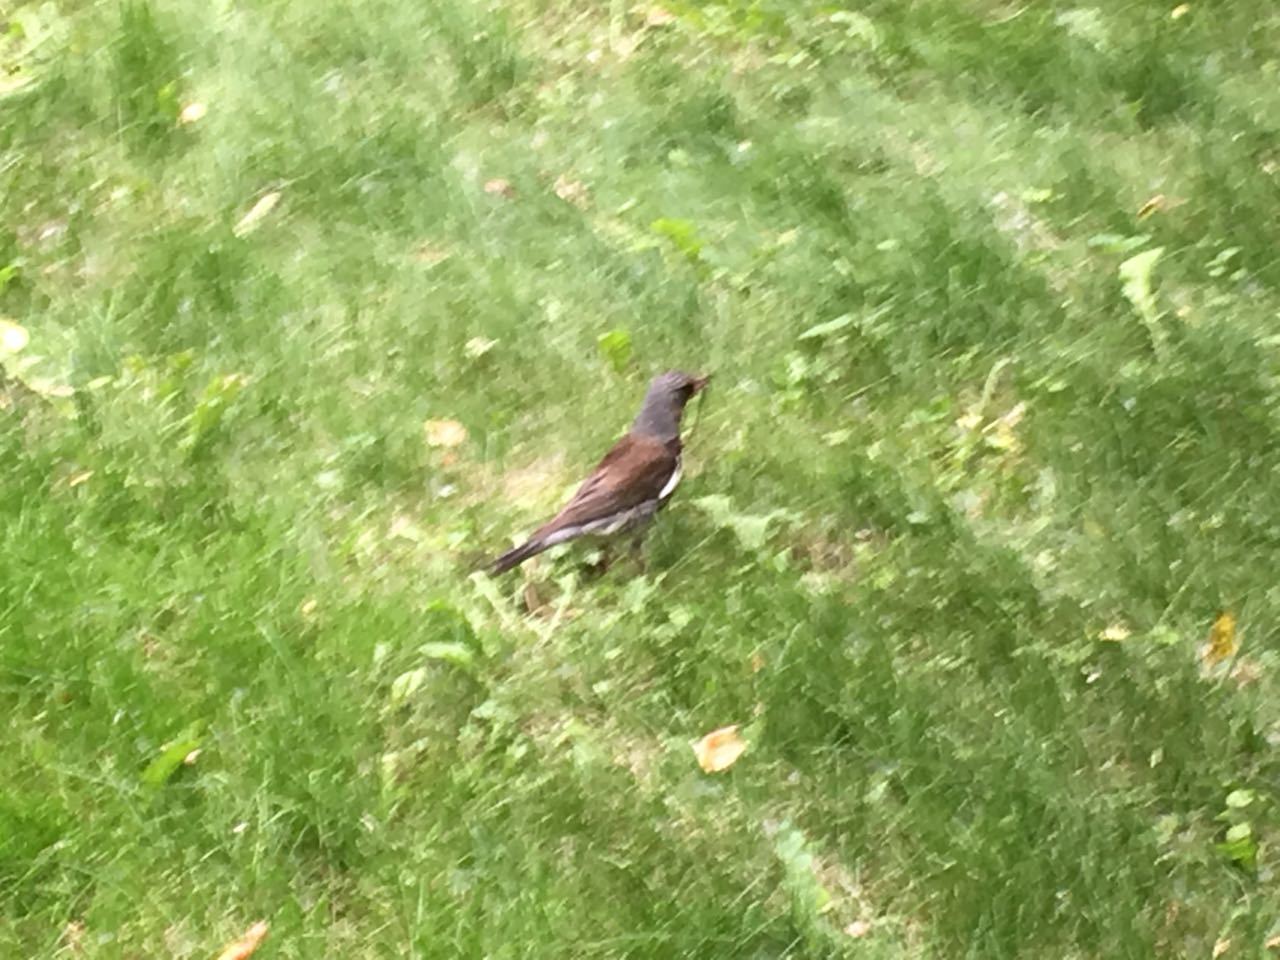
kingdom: Animalia
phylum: Chordata
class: Aves
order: Passeriformes
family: Turdidae
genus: Turdus
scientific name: Turdus pilaris
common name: Fieldfare
